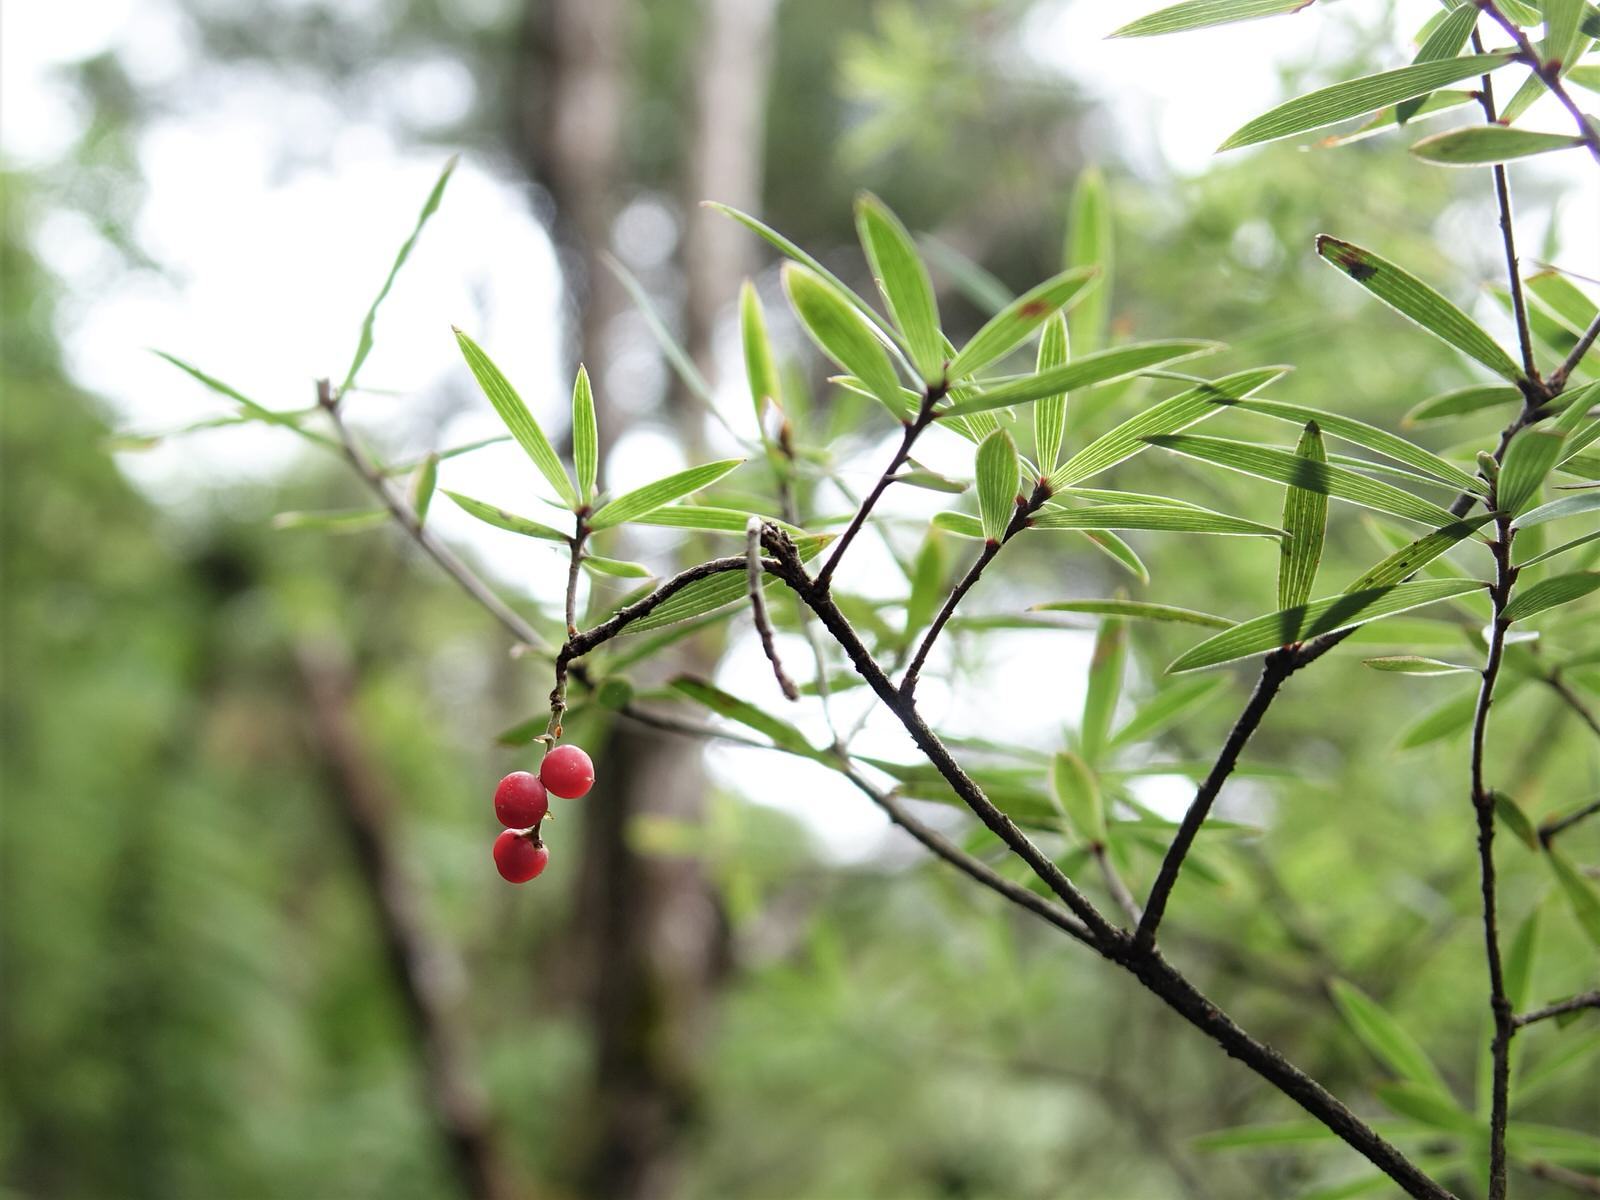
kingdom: Plantae
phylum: Tracheophyta
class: Magnoliopsida
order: Ericales
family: Ericaceae
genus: Leucopogon
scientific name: Leucopogon fasciculatus
